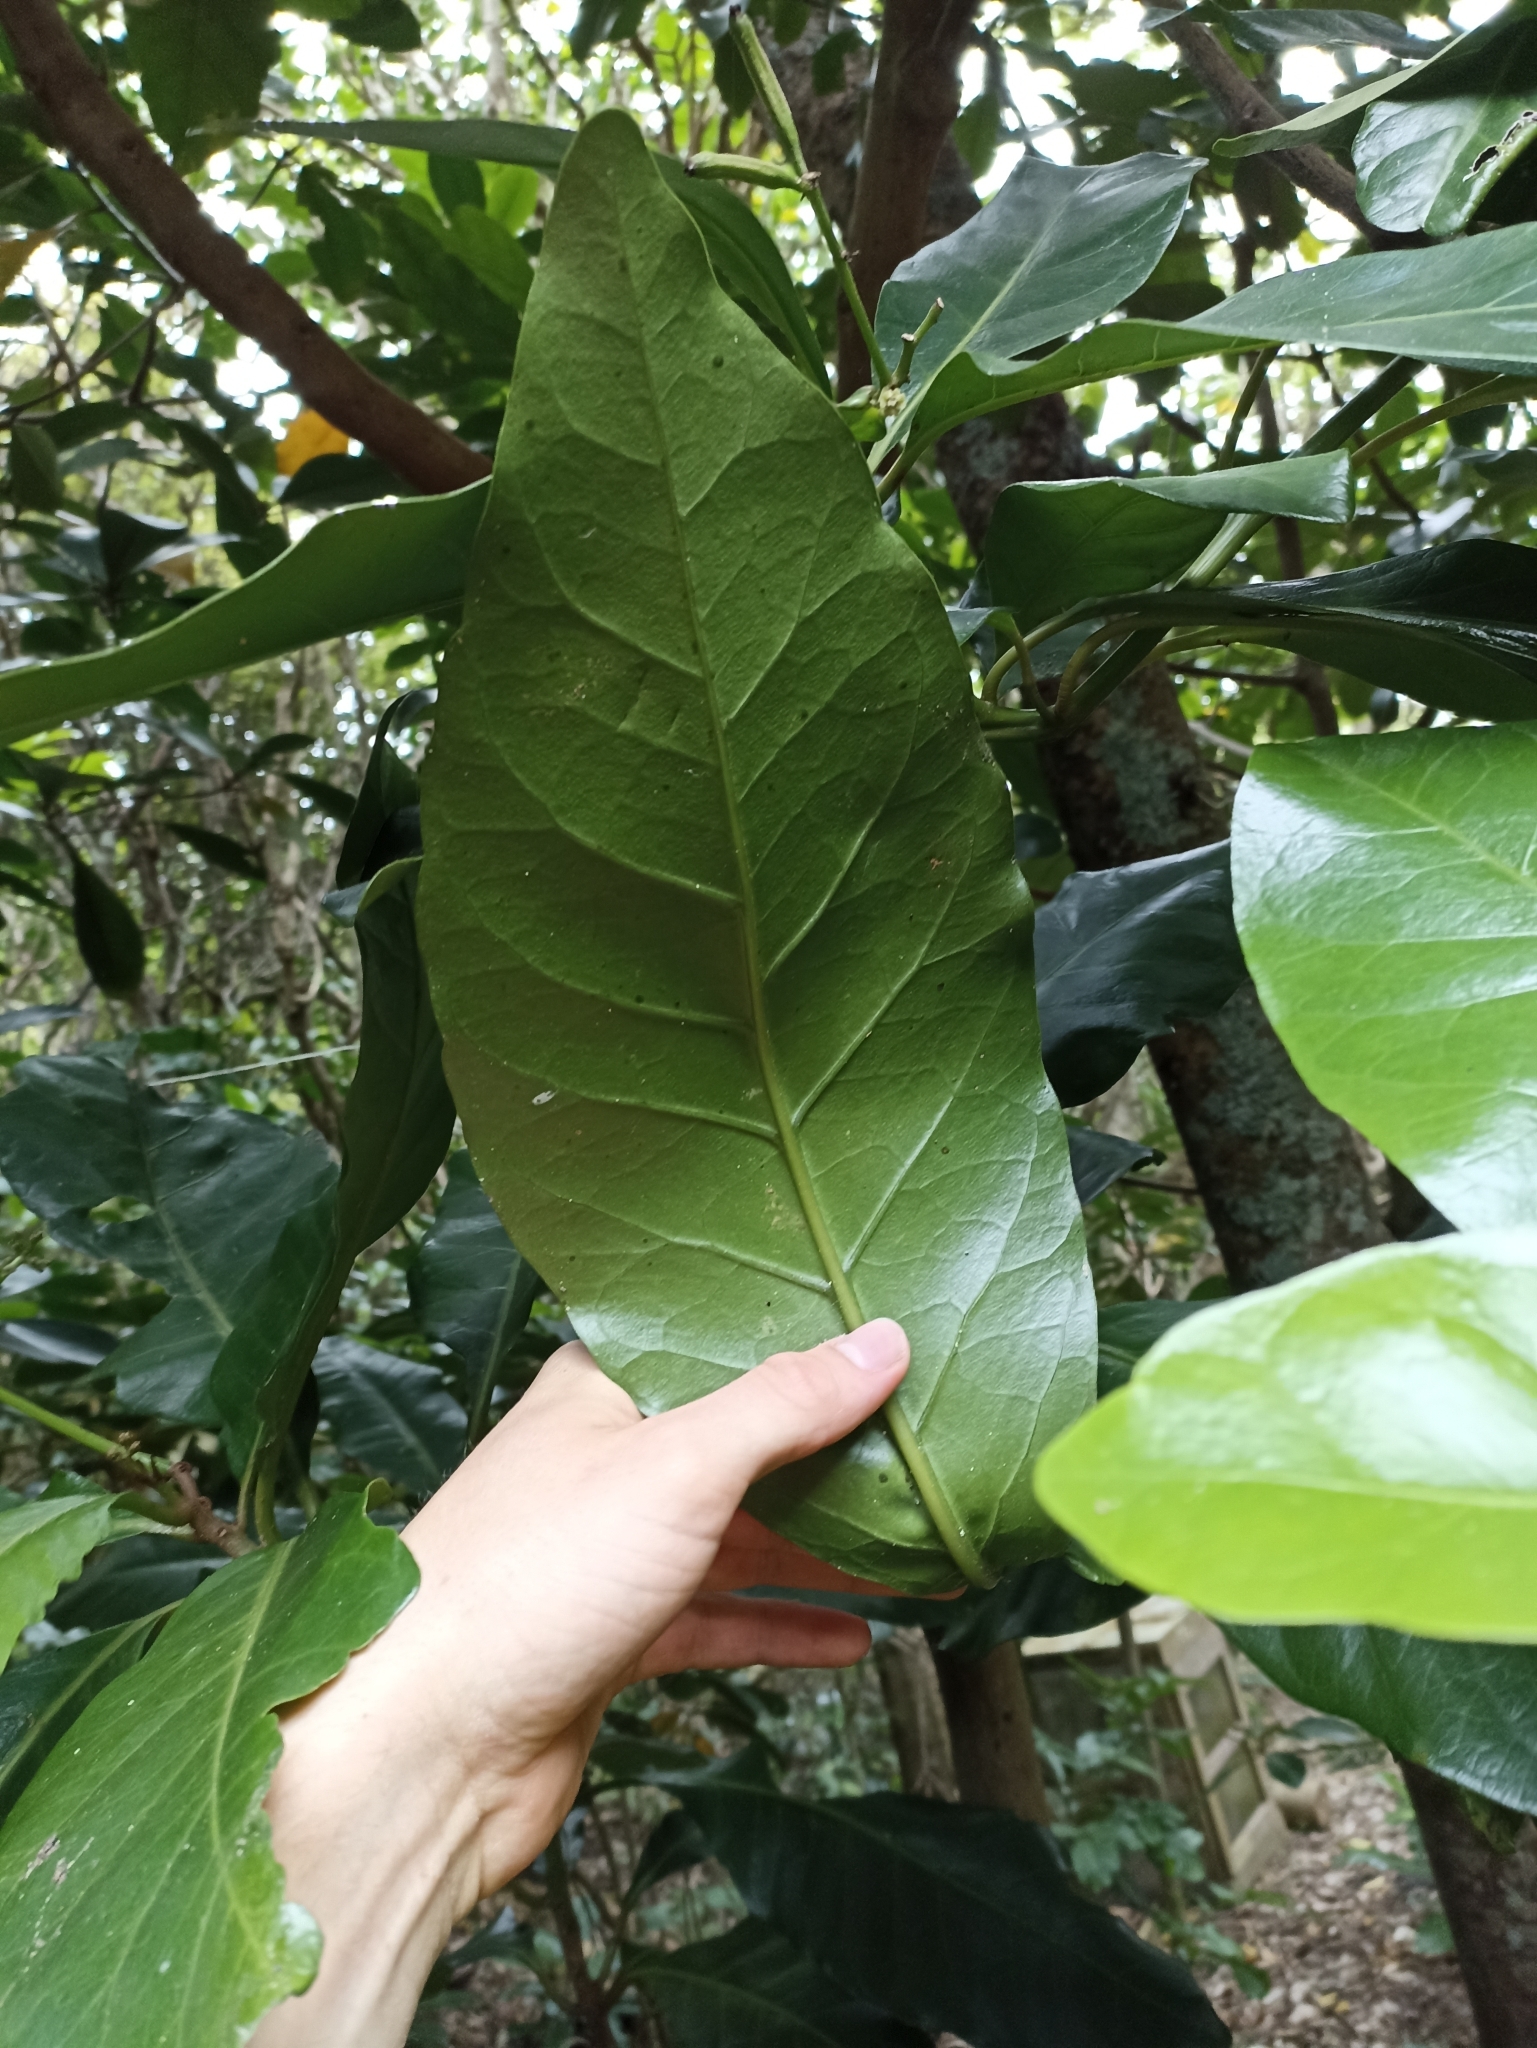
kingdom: Plantae
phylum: Tracheophyta
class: Magnoliopsida
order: Caryophyllales
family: Nyctaginaceae
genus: Ceodes
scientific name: Ceodes brunoniana
